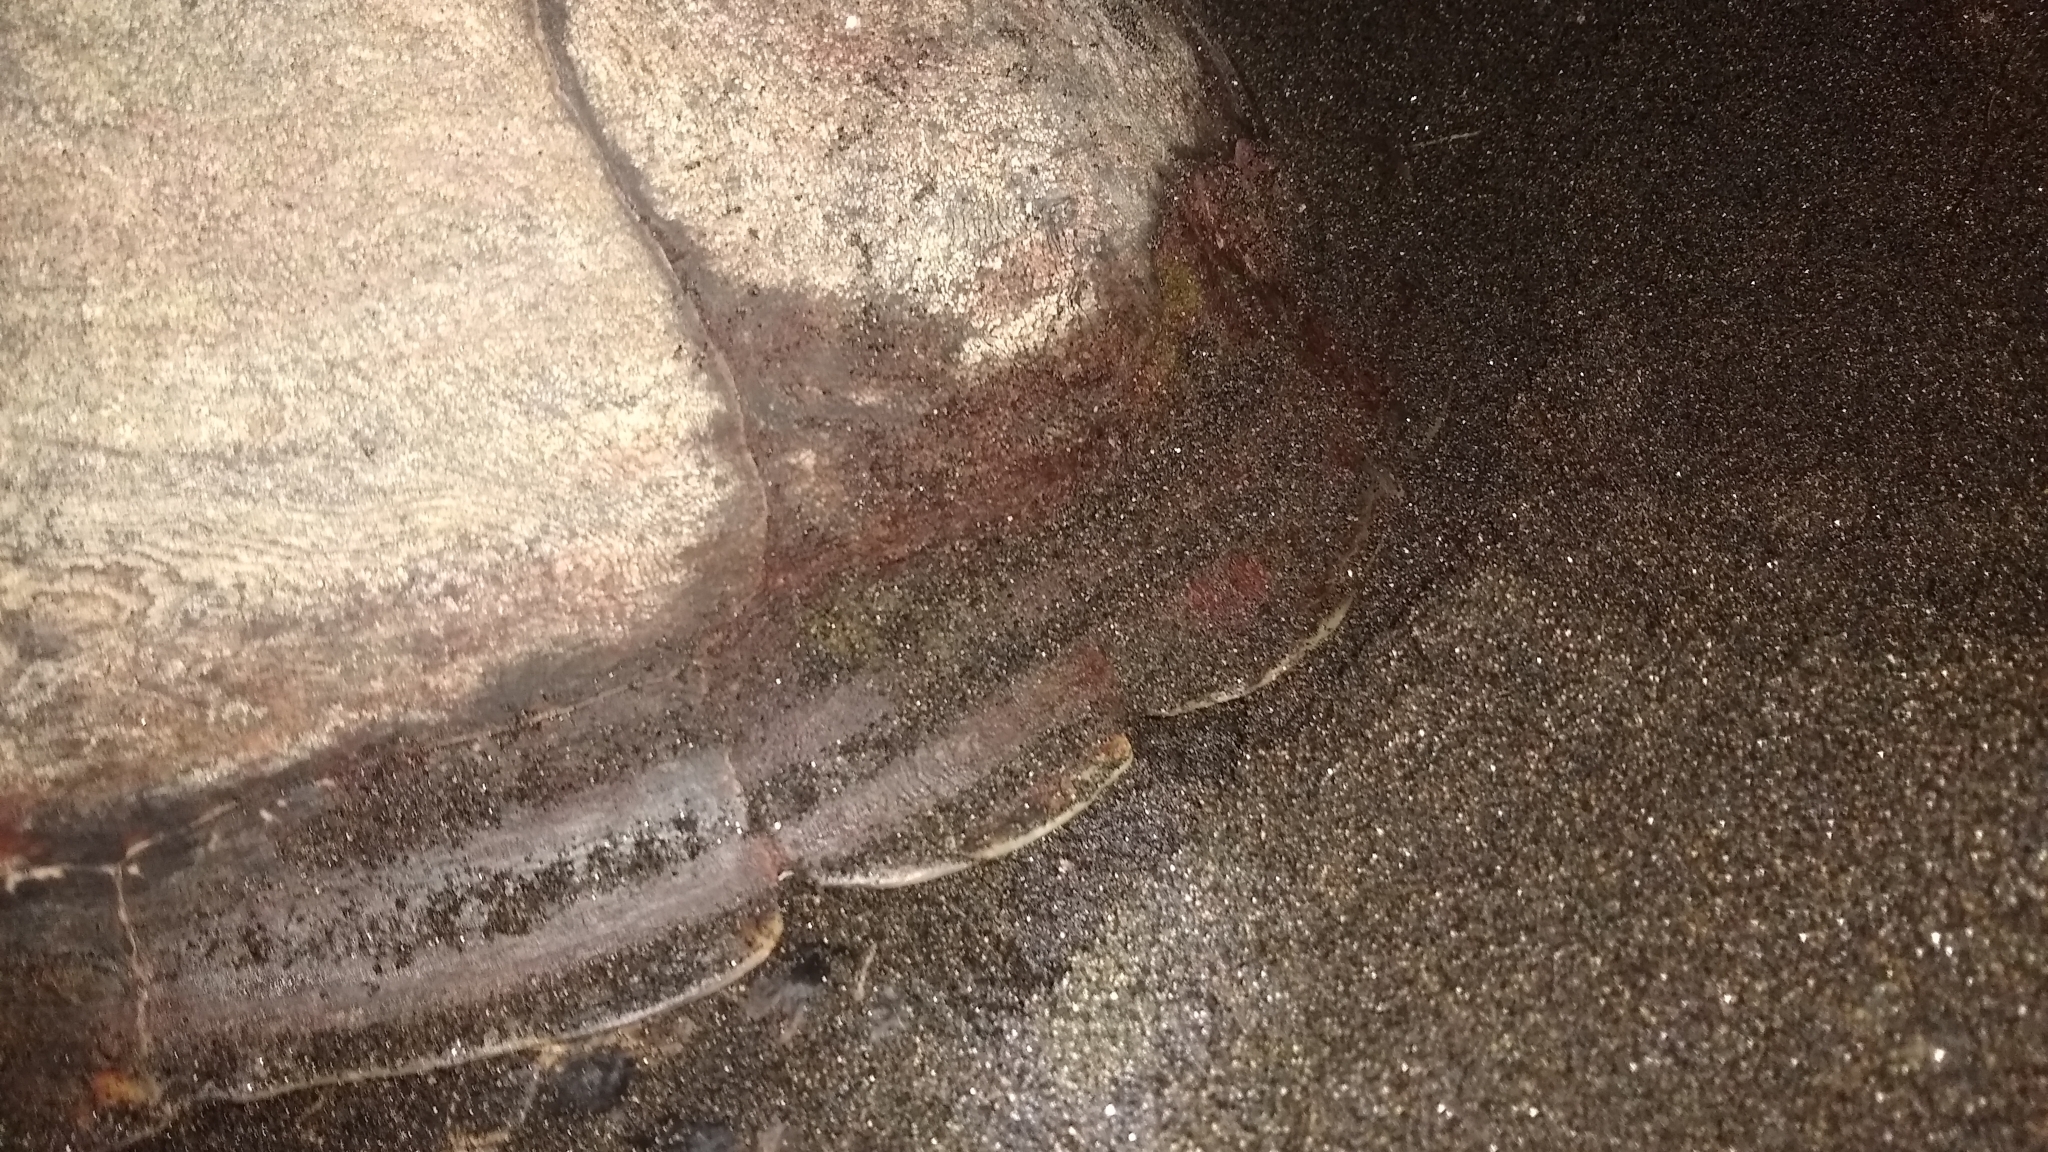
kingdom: Animalia
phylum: Chordata
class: Testudines
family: Cheloniidae
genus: Eretmochelys
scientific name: Eretmochelys imbricata
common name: Hawksbill turtle
